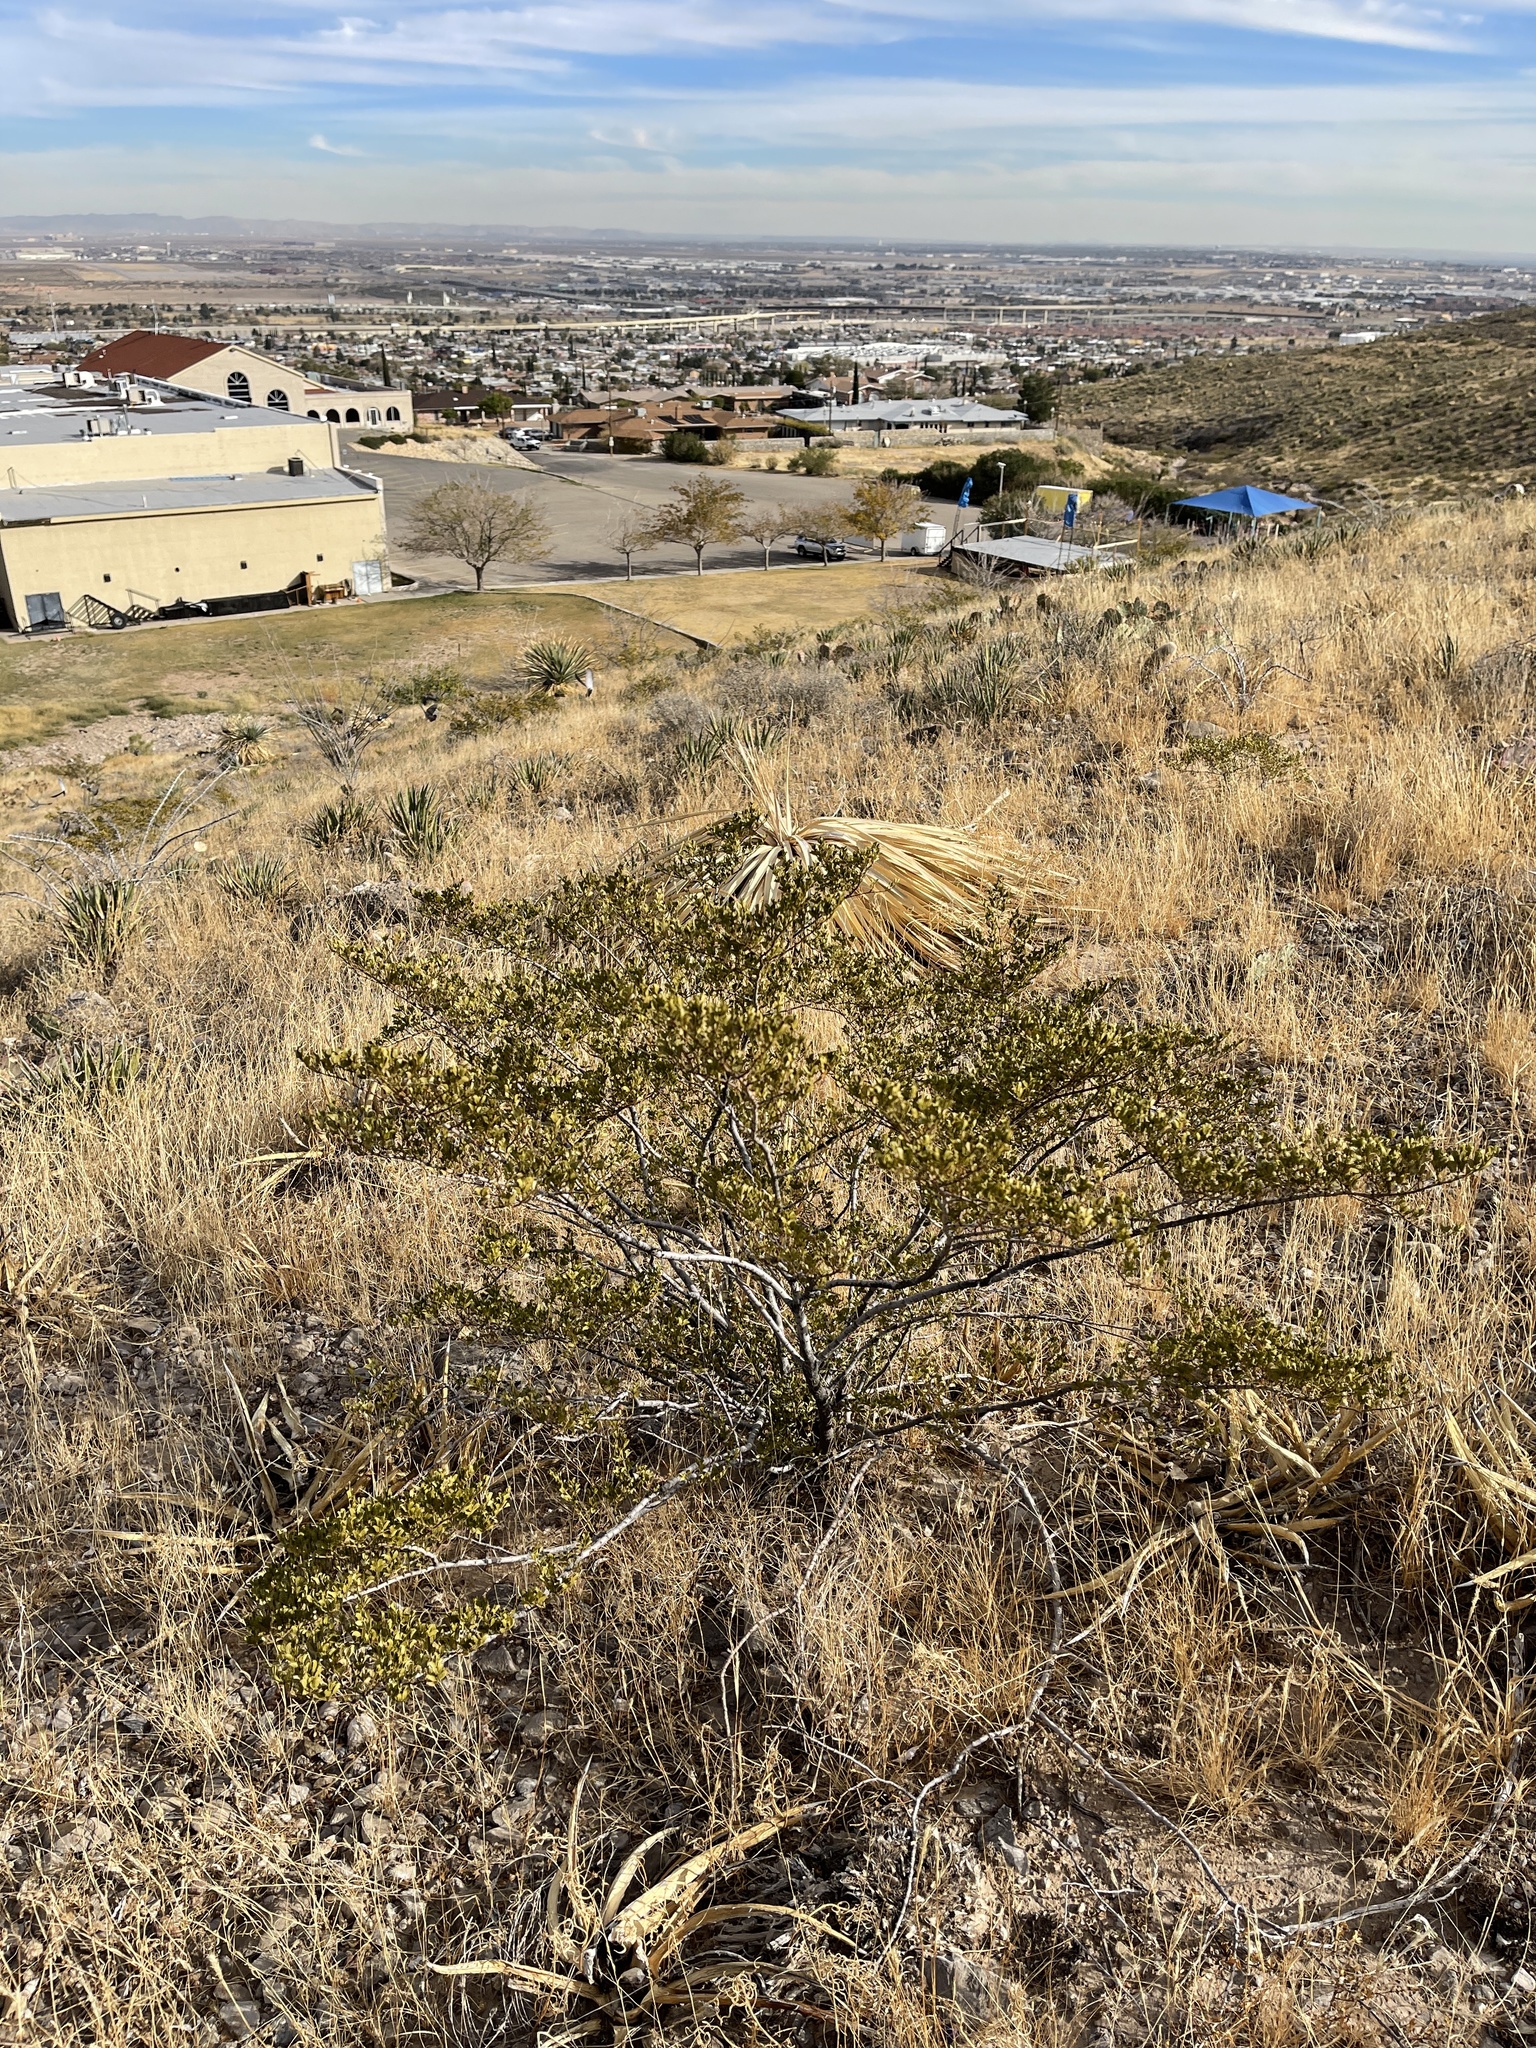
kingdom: Plantae
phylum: Tracheophyta
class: Magnoliopsida
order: Zygophyllales
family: Zygophyllaceae
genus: Larrea
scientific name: Larrea tridentata
